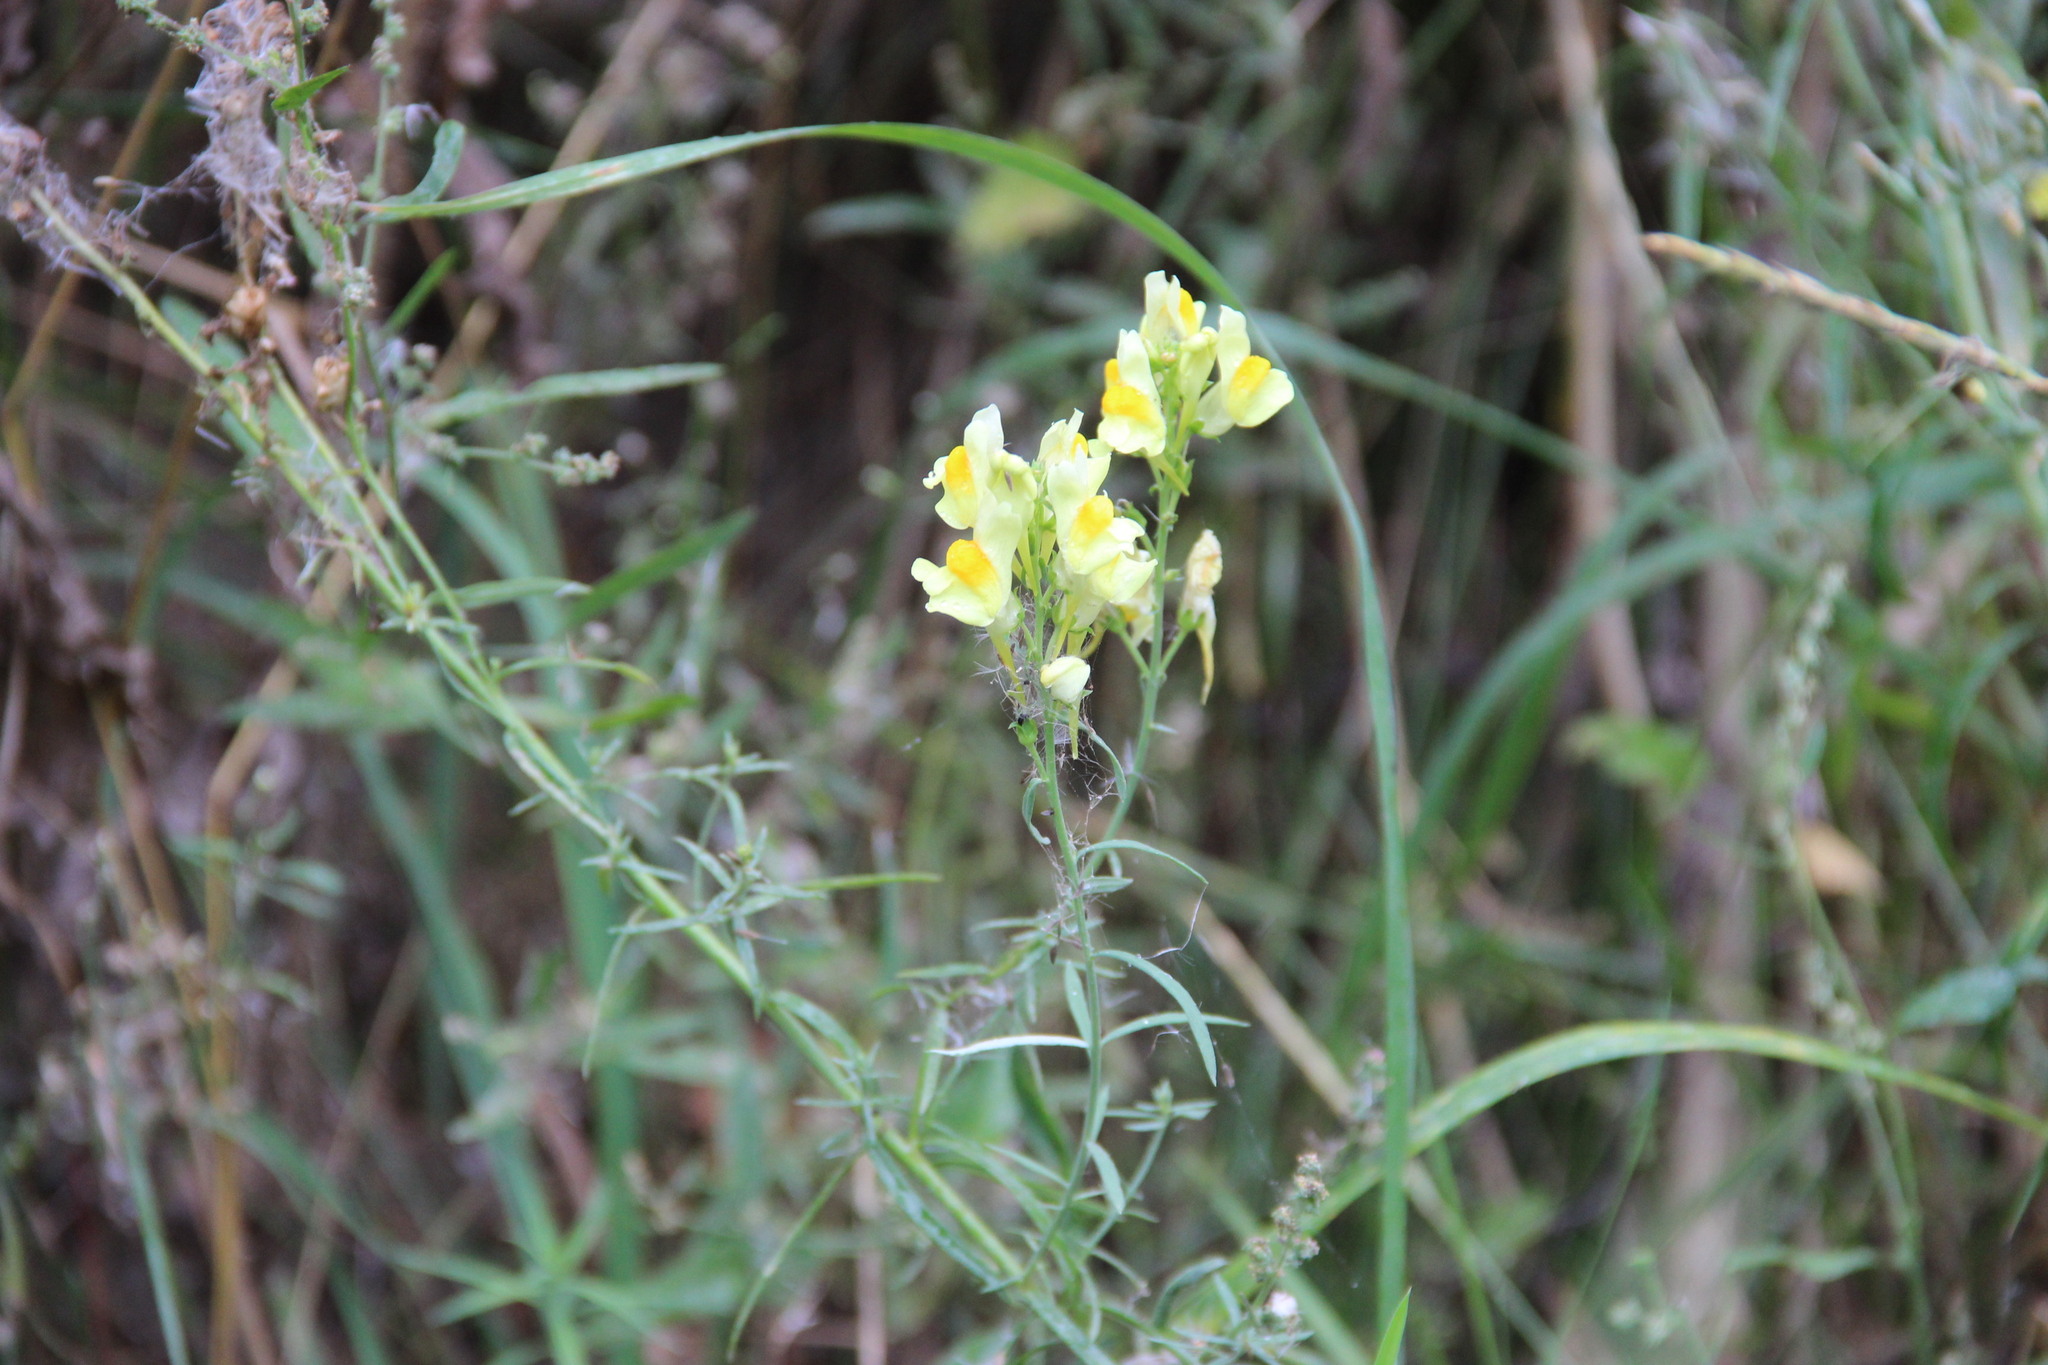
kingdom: Plantae
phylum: Tracheophyta
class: Magnoliopsida
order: Lamiales
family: Plantaginaceae
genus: Linaria
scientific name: Linaria vulgaris
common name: Butter and eggs
